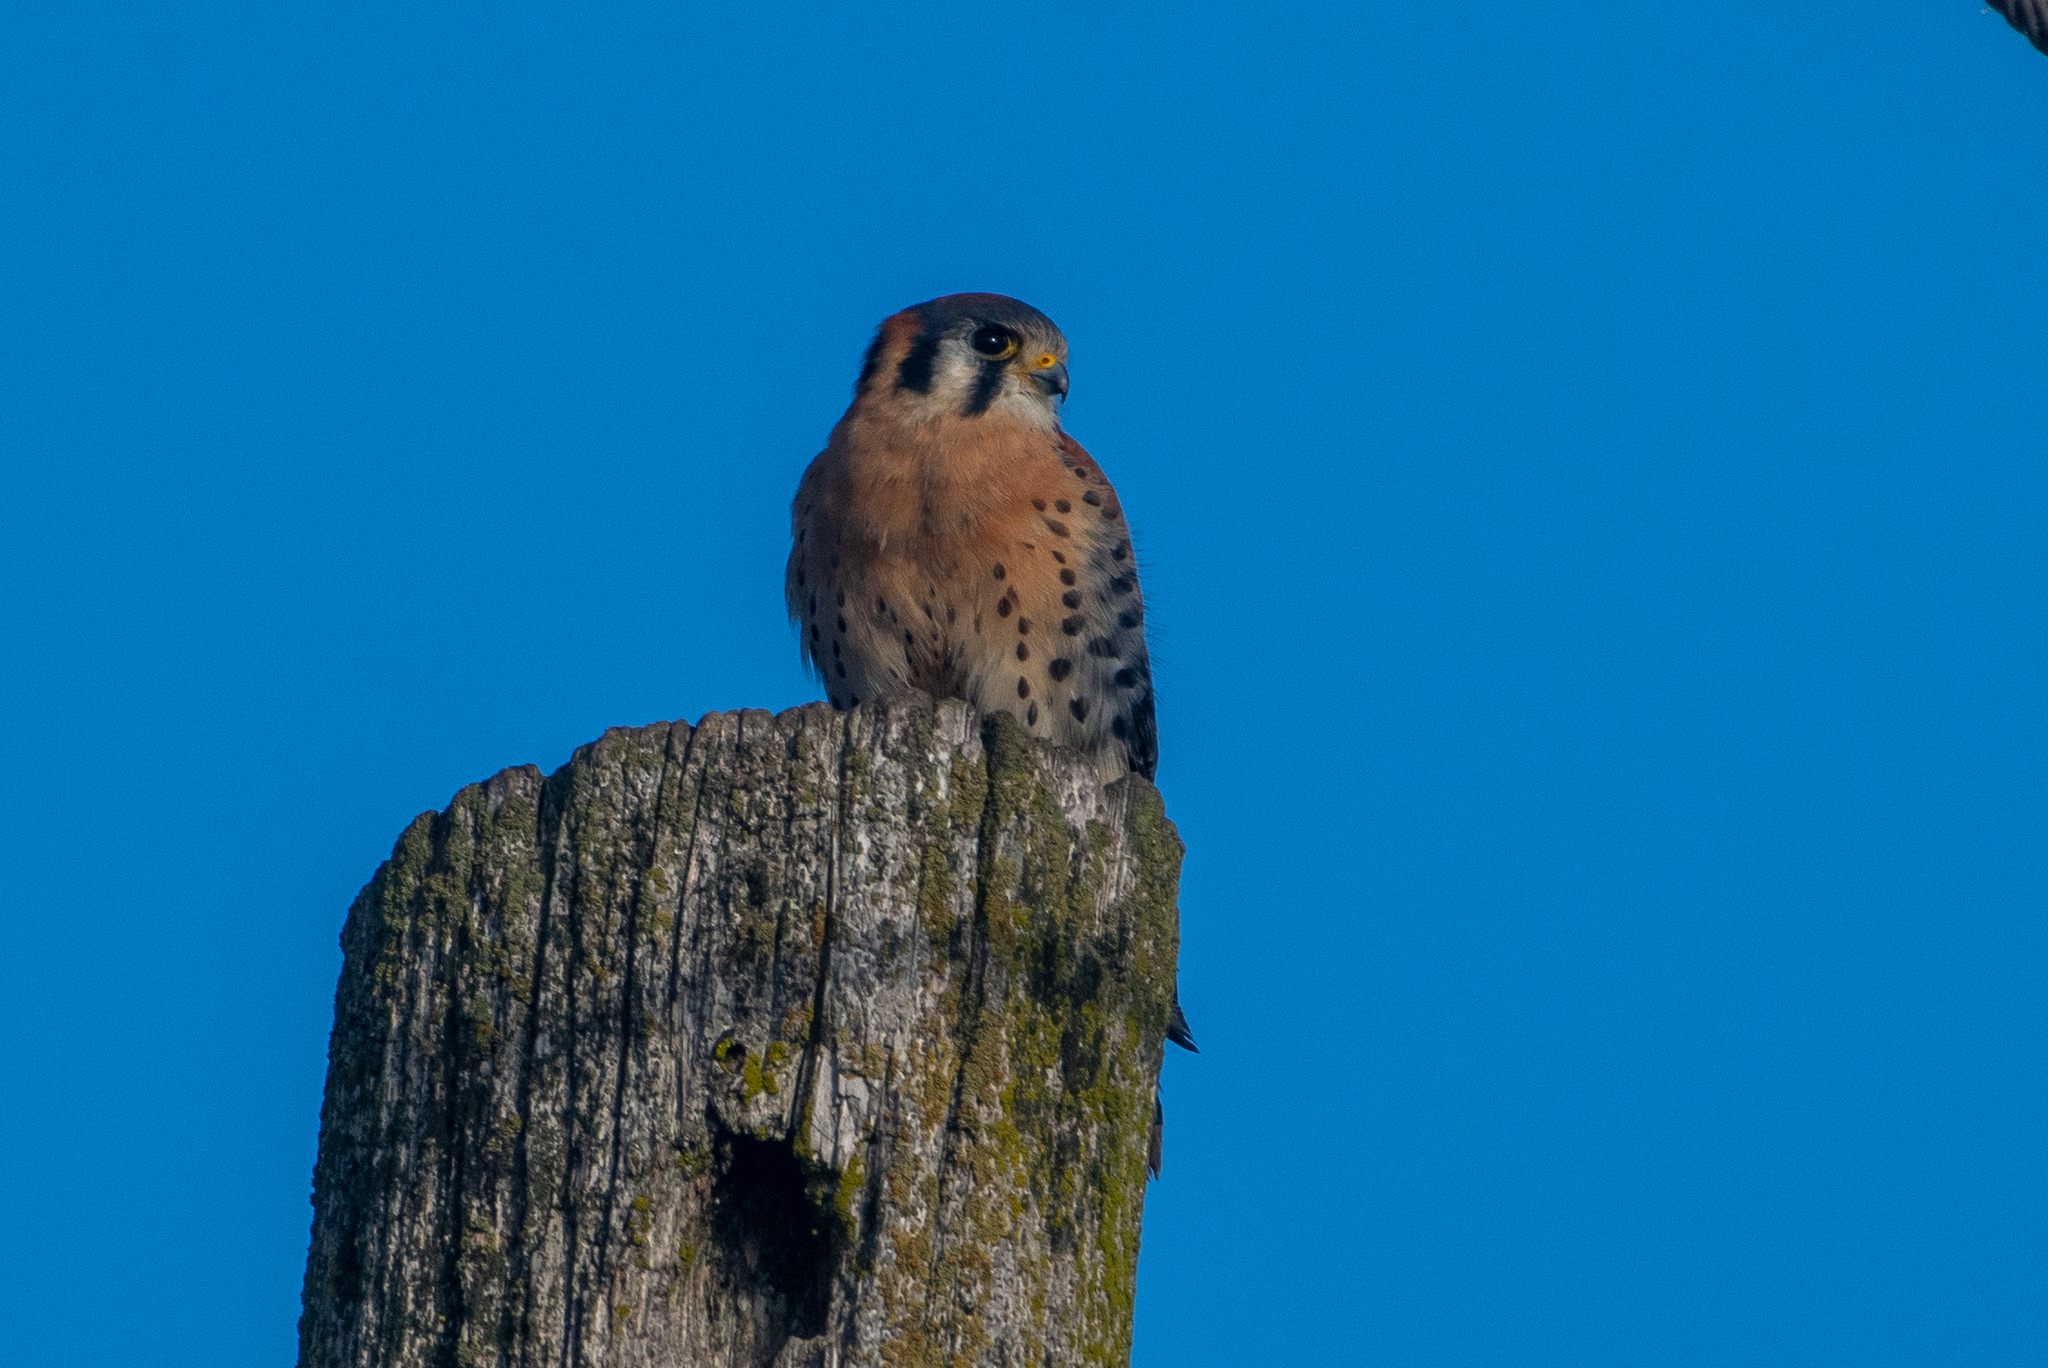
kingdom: Animalia
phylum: Chordata
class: Aves
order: Falconiformes
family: Falconidae
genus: Falco
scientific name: Falco sparverius
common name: American kestrel
